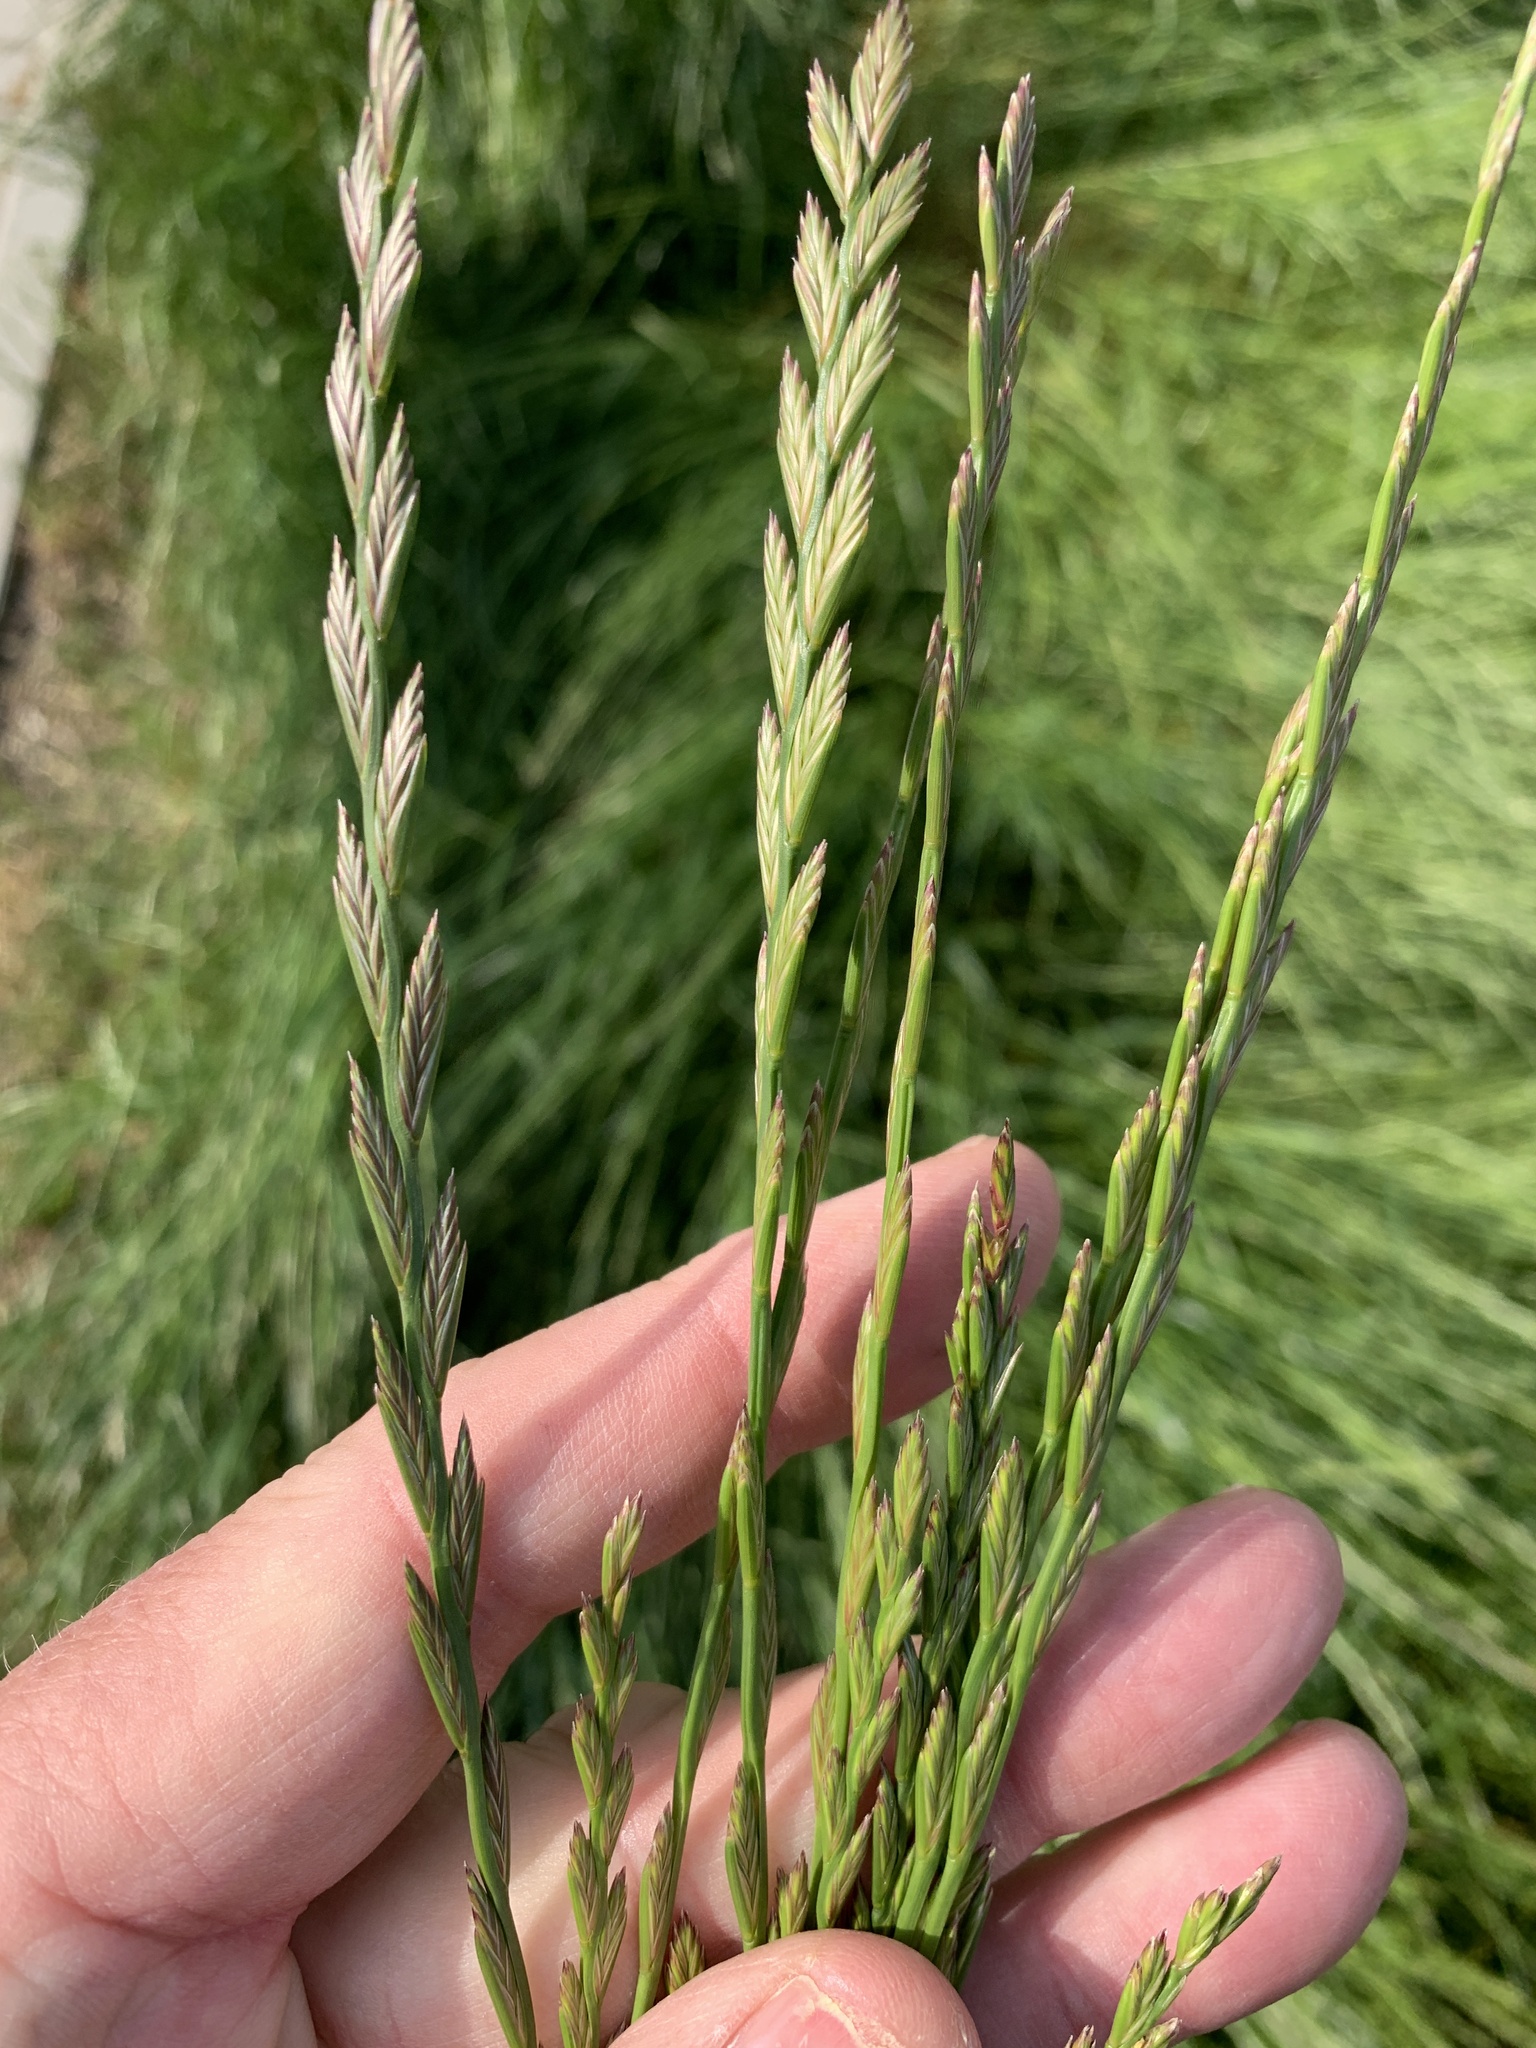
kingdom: Plantae
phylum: Tracheophyta
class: Liliopsida
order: Poales
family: Poaceae
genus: Lolium
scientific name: Lolium perenne
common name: Perennial ryegrass
